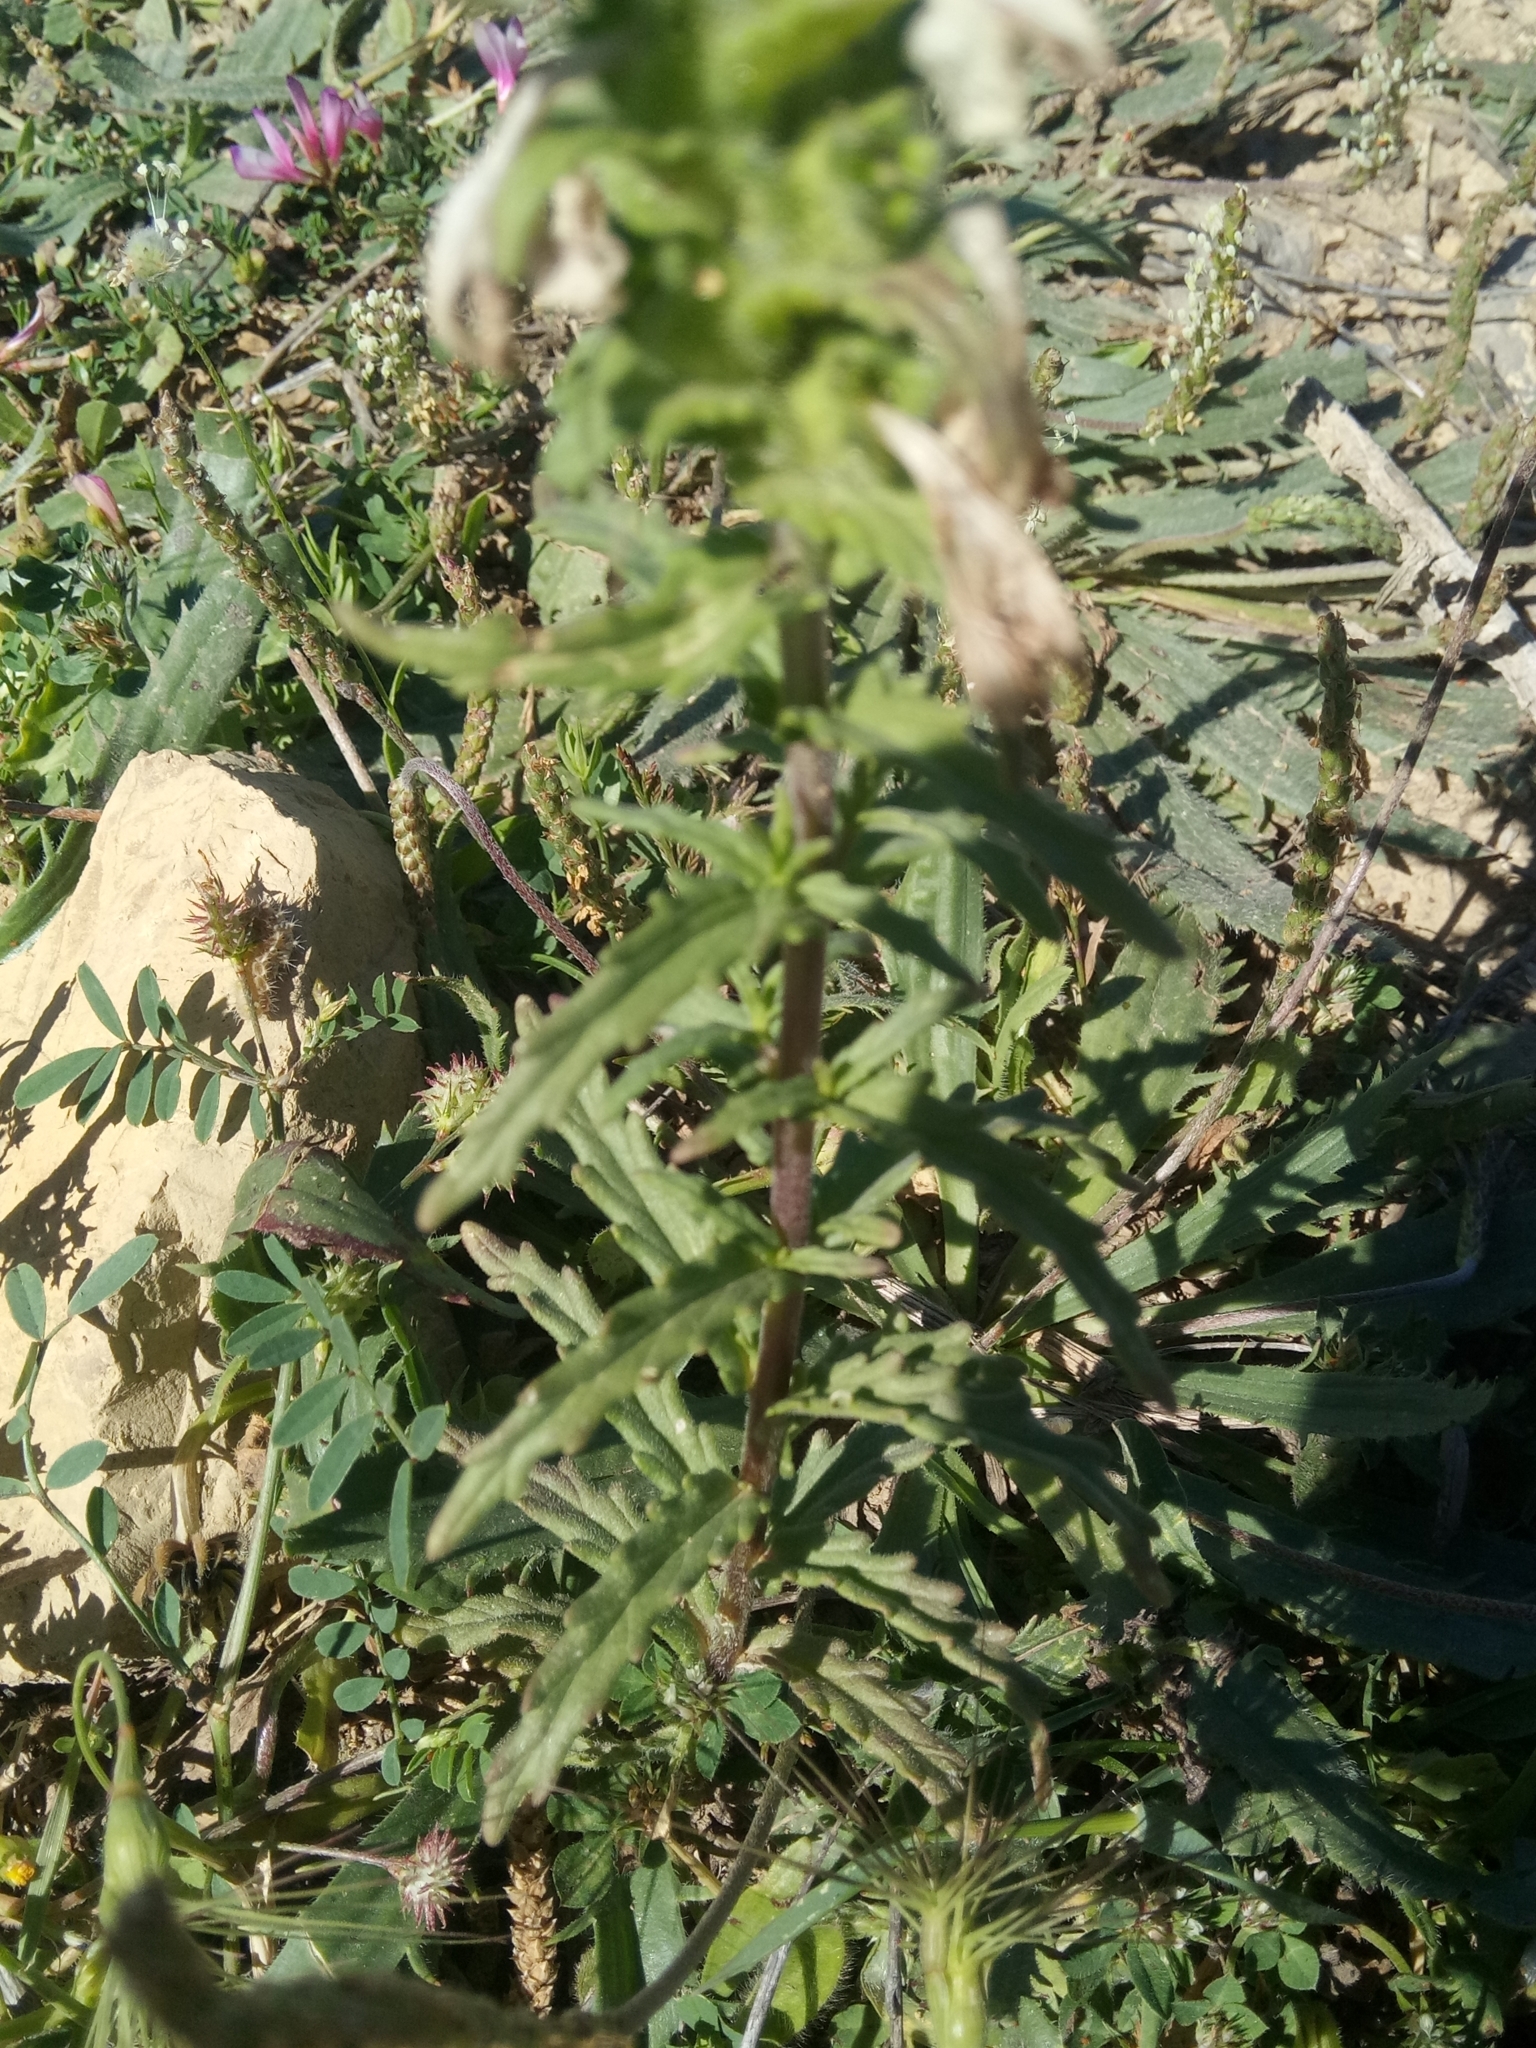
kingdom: Plantae
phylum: Tracheophyta
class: Magnoliopsida
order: Lamiales
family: Orobanchaceae
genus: Bellardia
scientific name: Bellardia trixago
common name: Mediterranean lineseed
